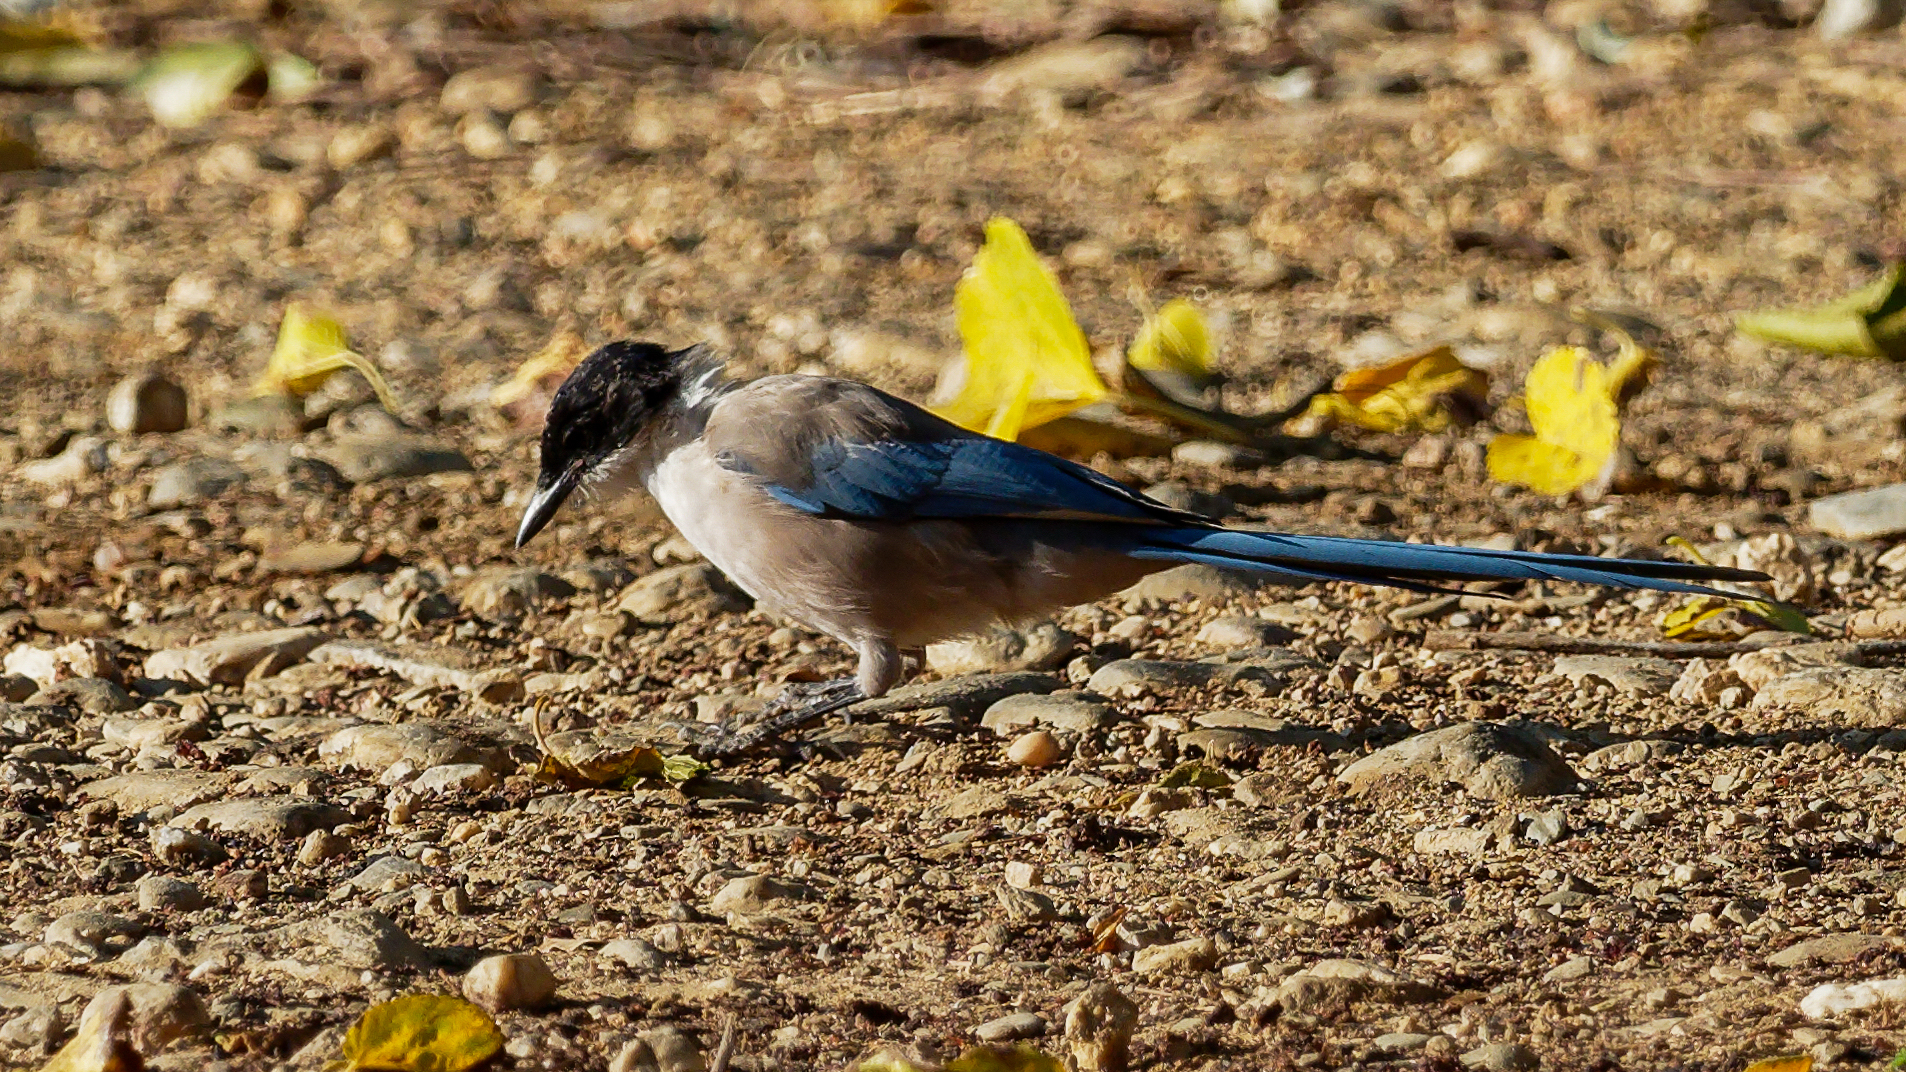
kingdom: Animalia
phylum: Chordata
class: Aves
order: Passeriformes
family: Corvidae
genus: Cyanopica
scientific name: Cyanopica cooki
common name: Iberian magpie
